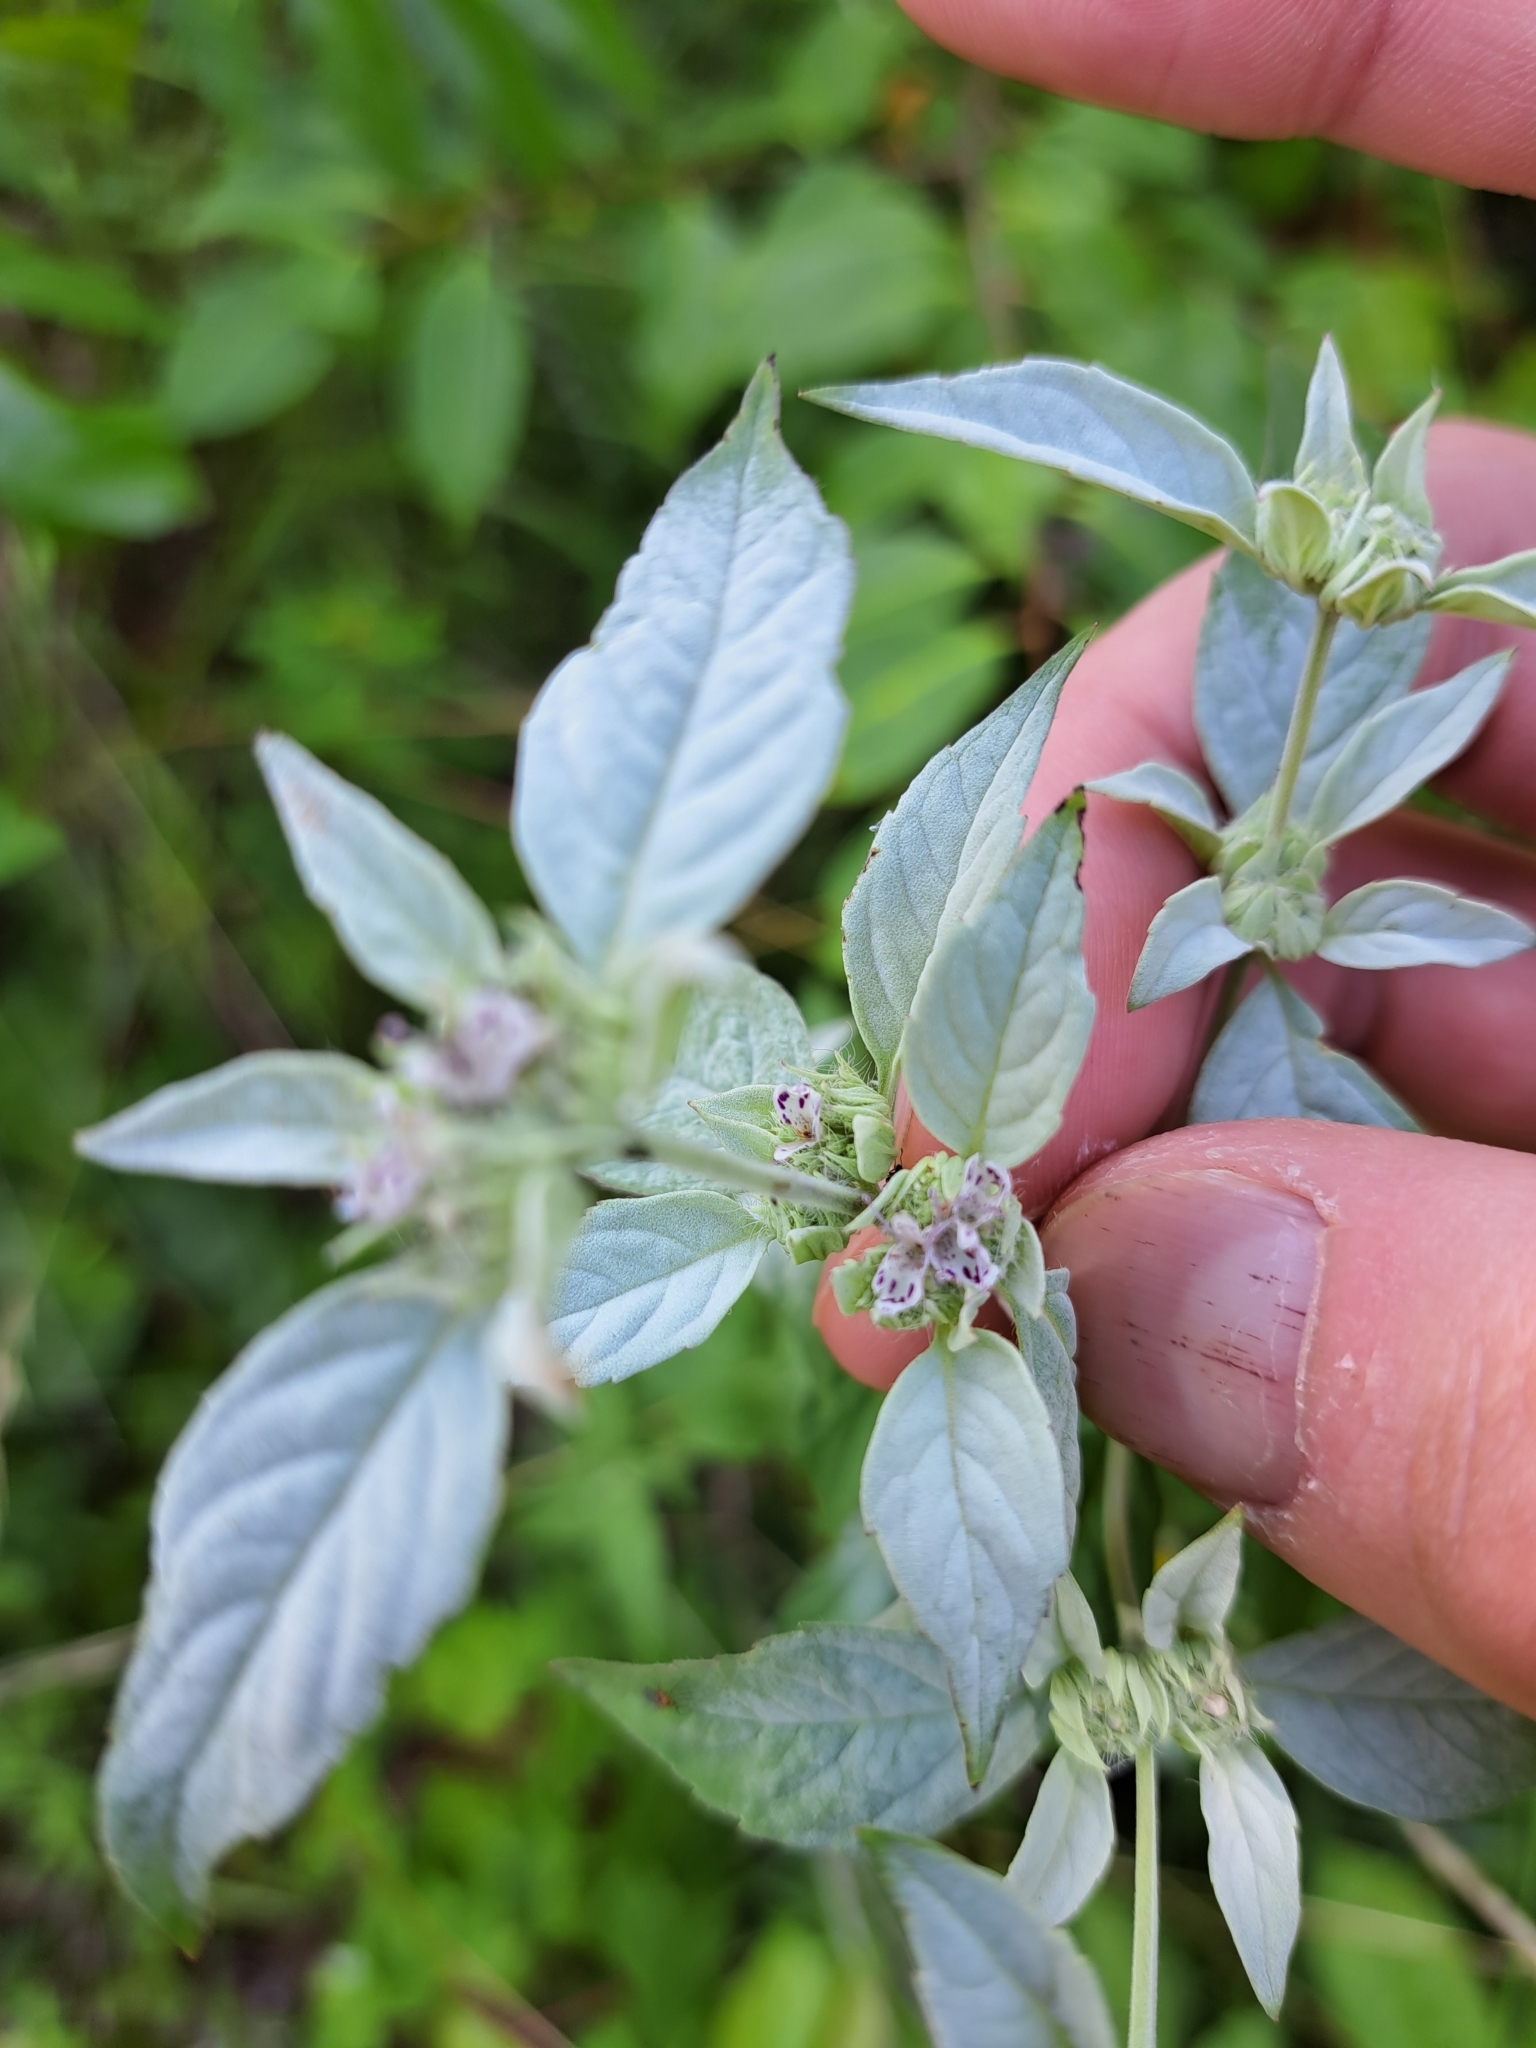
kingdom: Plantae
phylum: Tracheophyta
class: Magnoliopsida
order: Lamiales
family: Lamiaceae
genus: Pycnanthemum
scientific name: Pycnanthemum loomisii
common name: Loomis's mountain-mint
